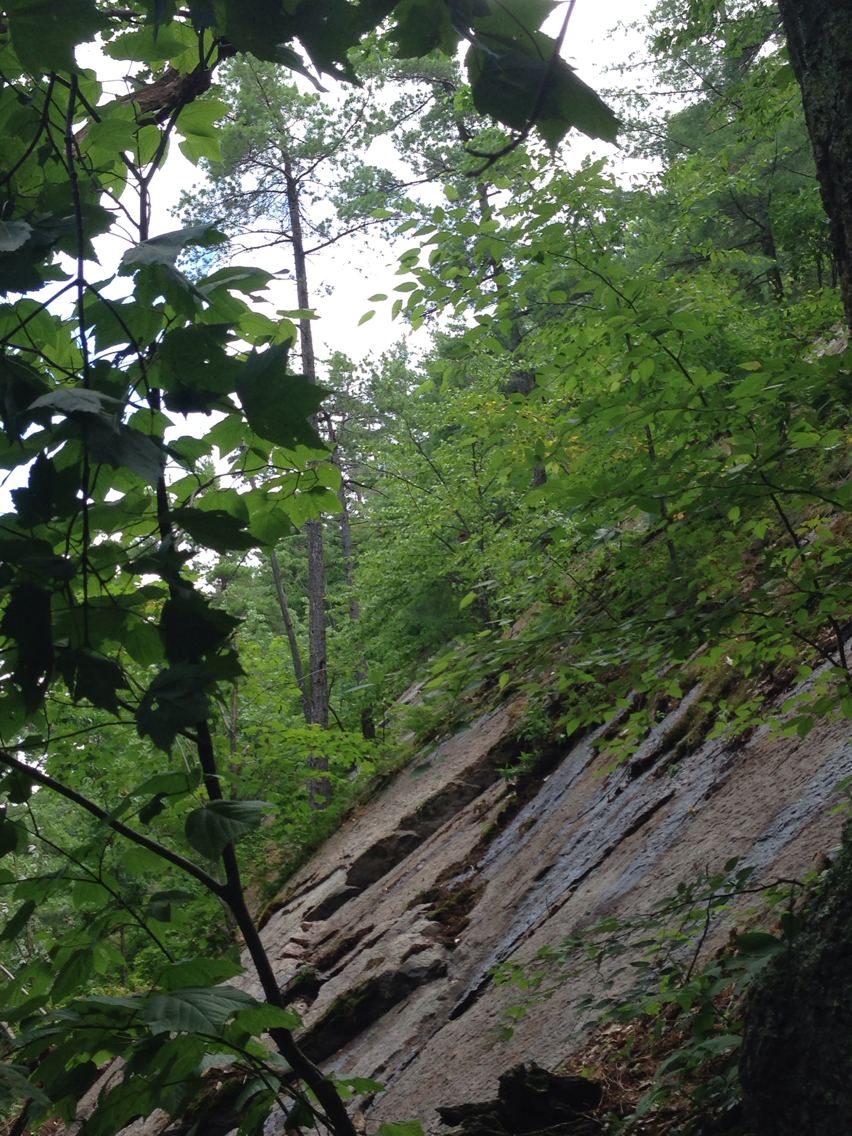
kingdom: Plantae
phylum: Tracheophyta
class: Pinopsida
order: Pinales
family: Pinaceae
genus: Pinus
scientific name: Pinus strobus
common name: Weymouth pine
